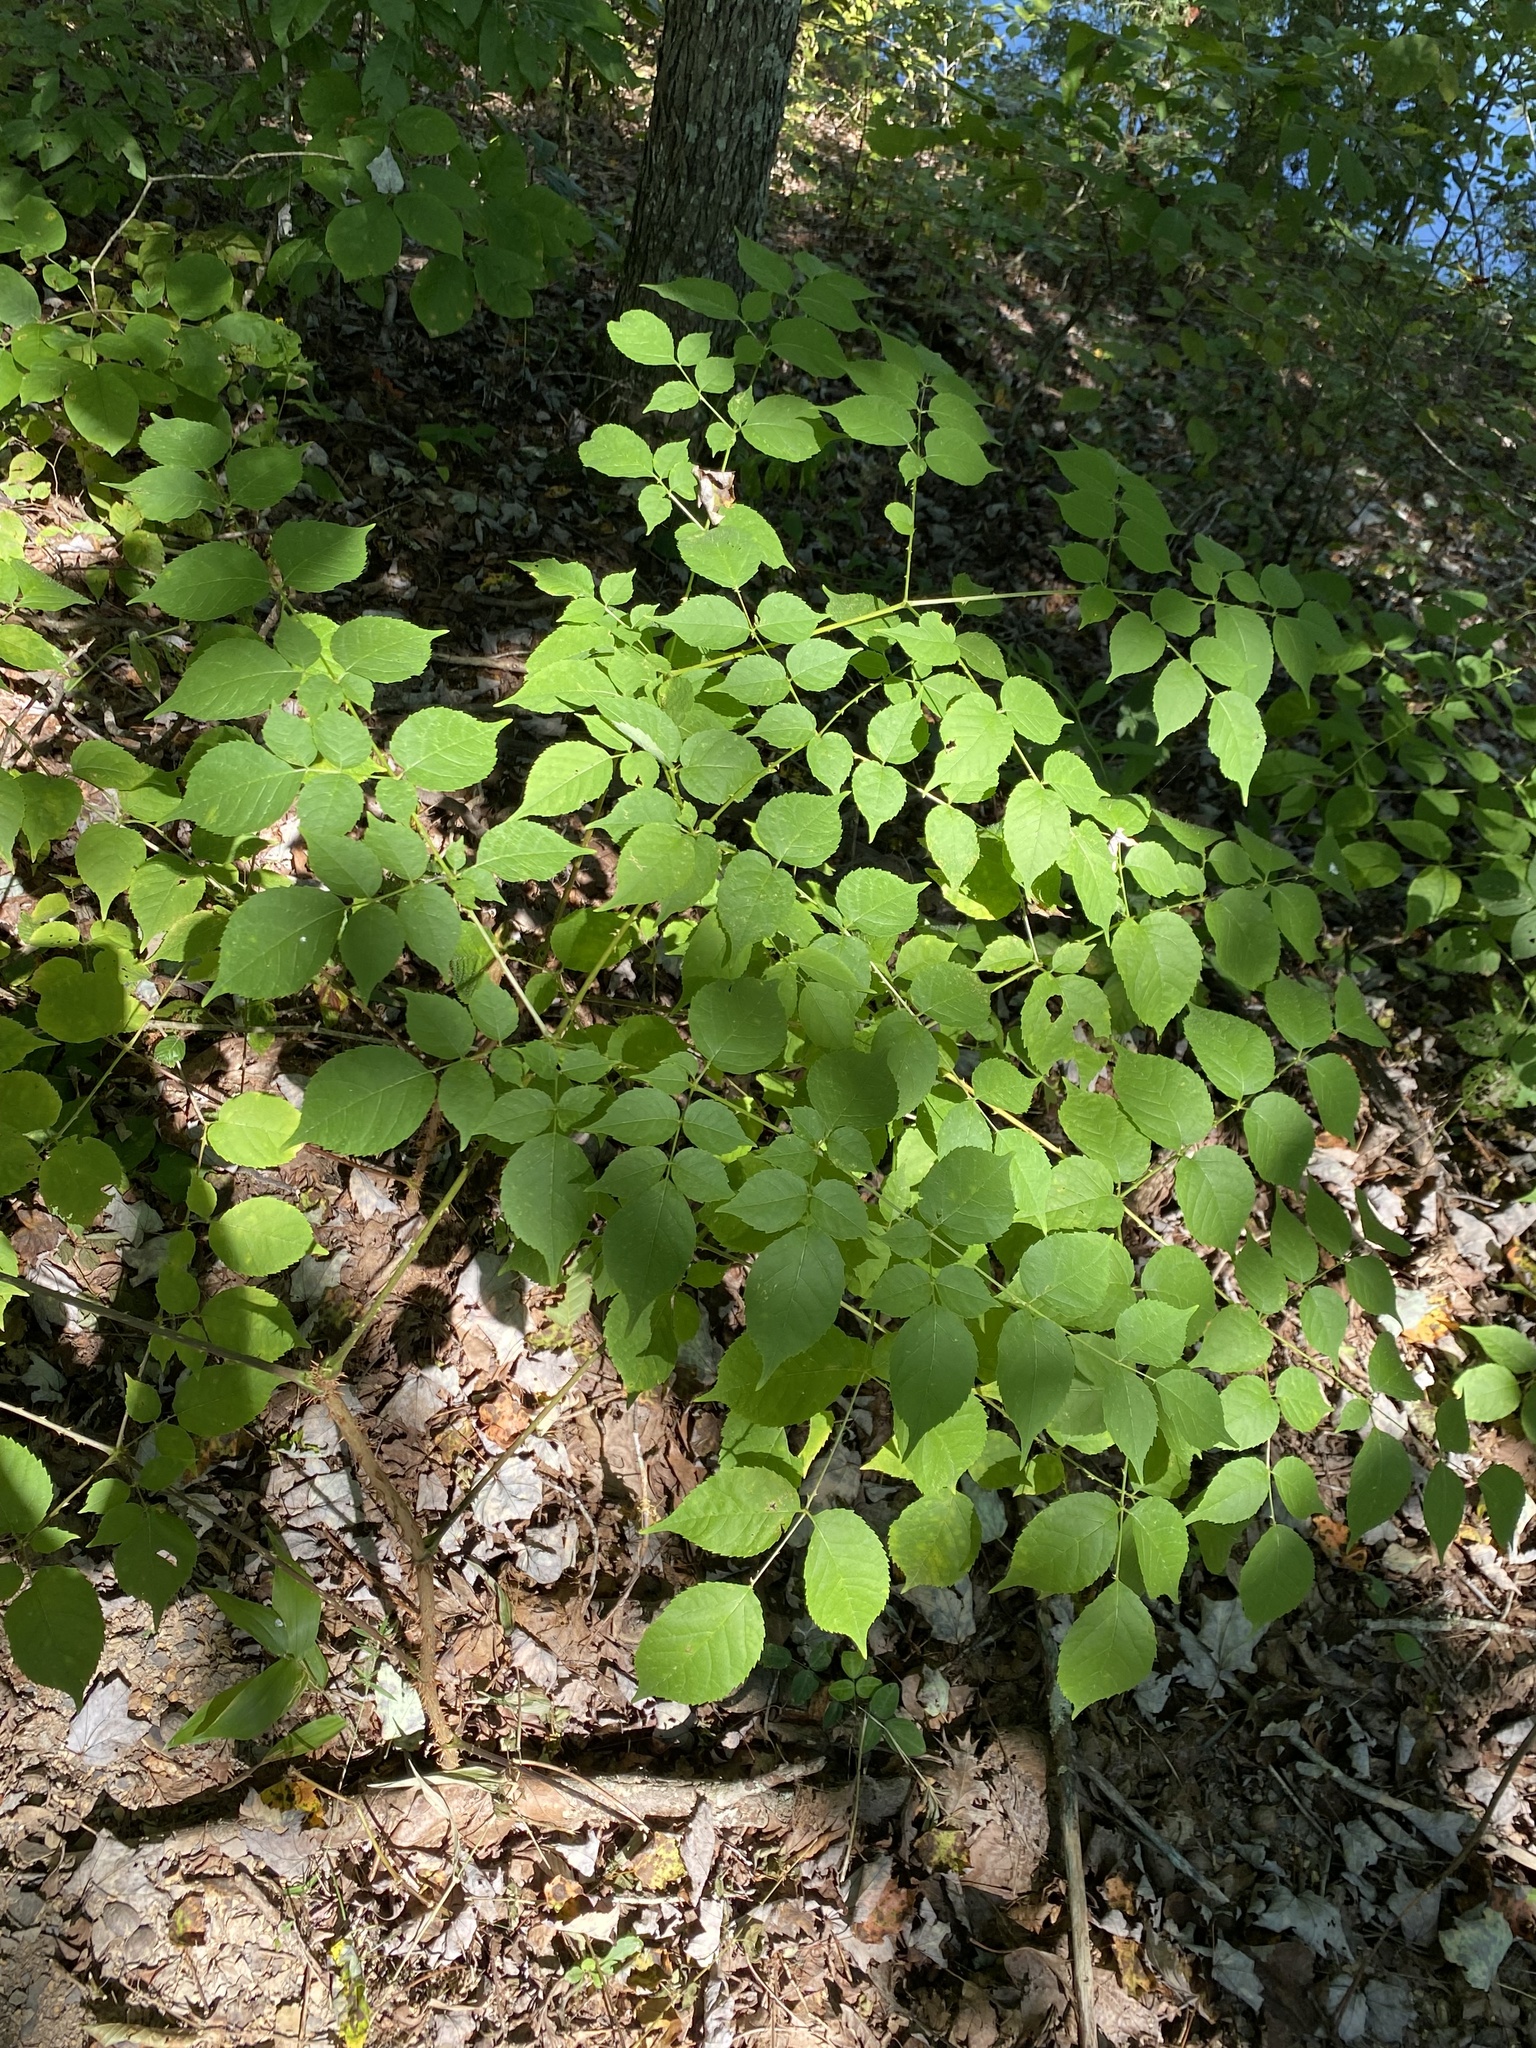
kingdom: Plantae
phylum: Tracheophyta
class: Magnoliopsida
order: Apiales
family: Araliaceae
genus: Aralia
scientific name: Aralia spinosa
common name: Hercules'-club
